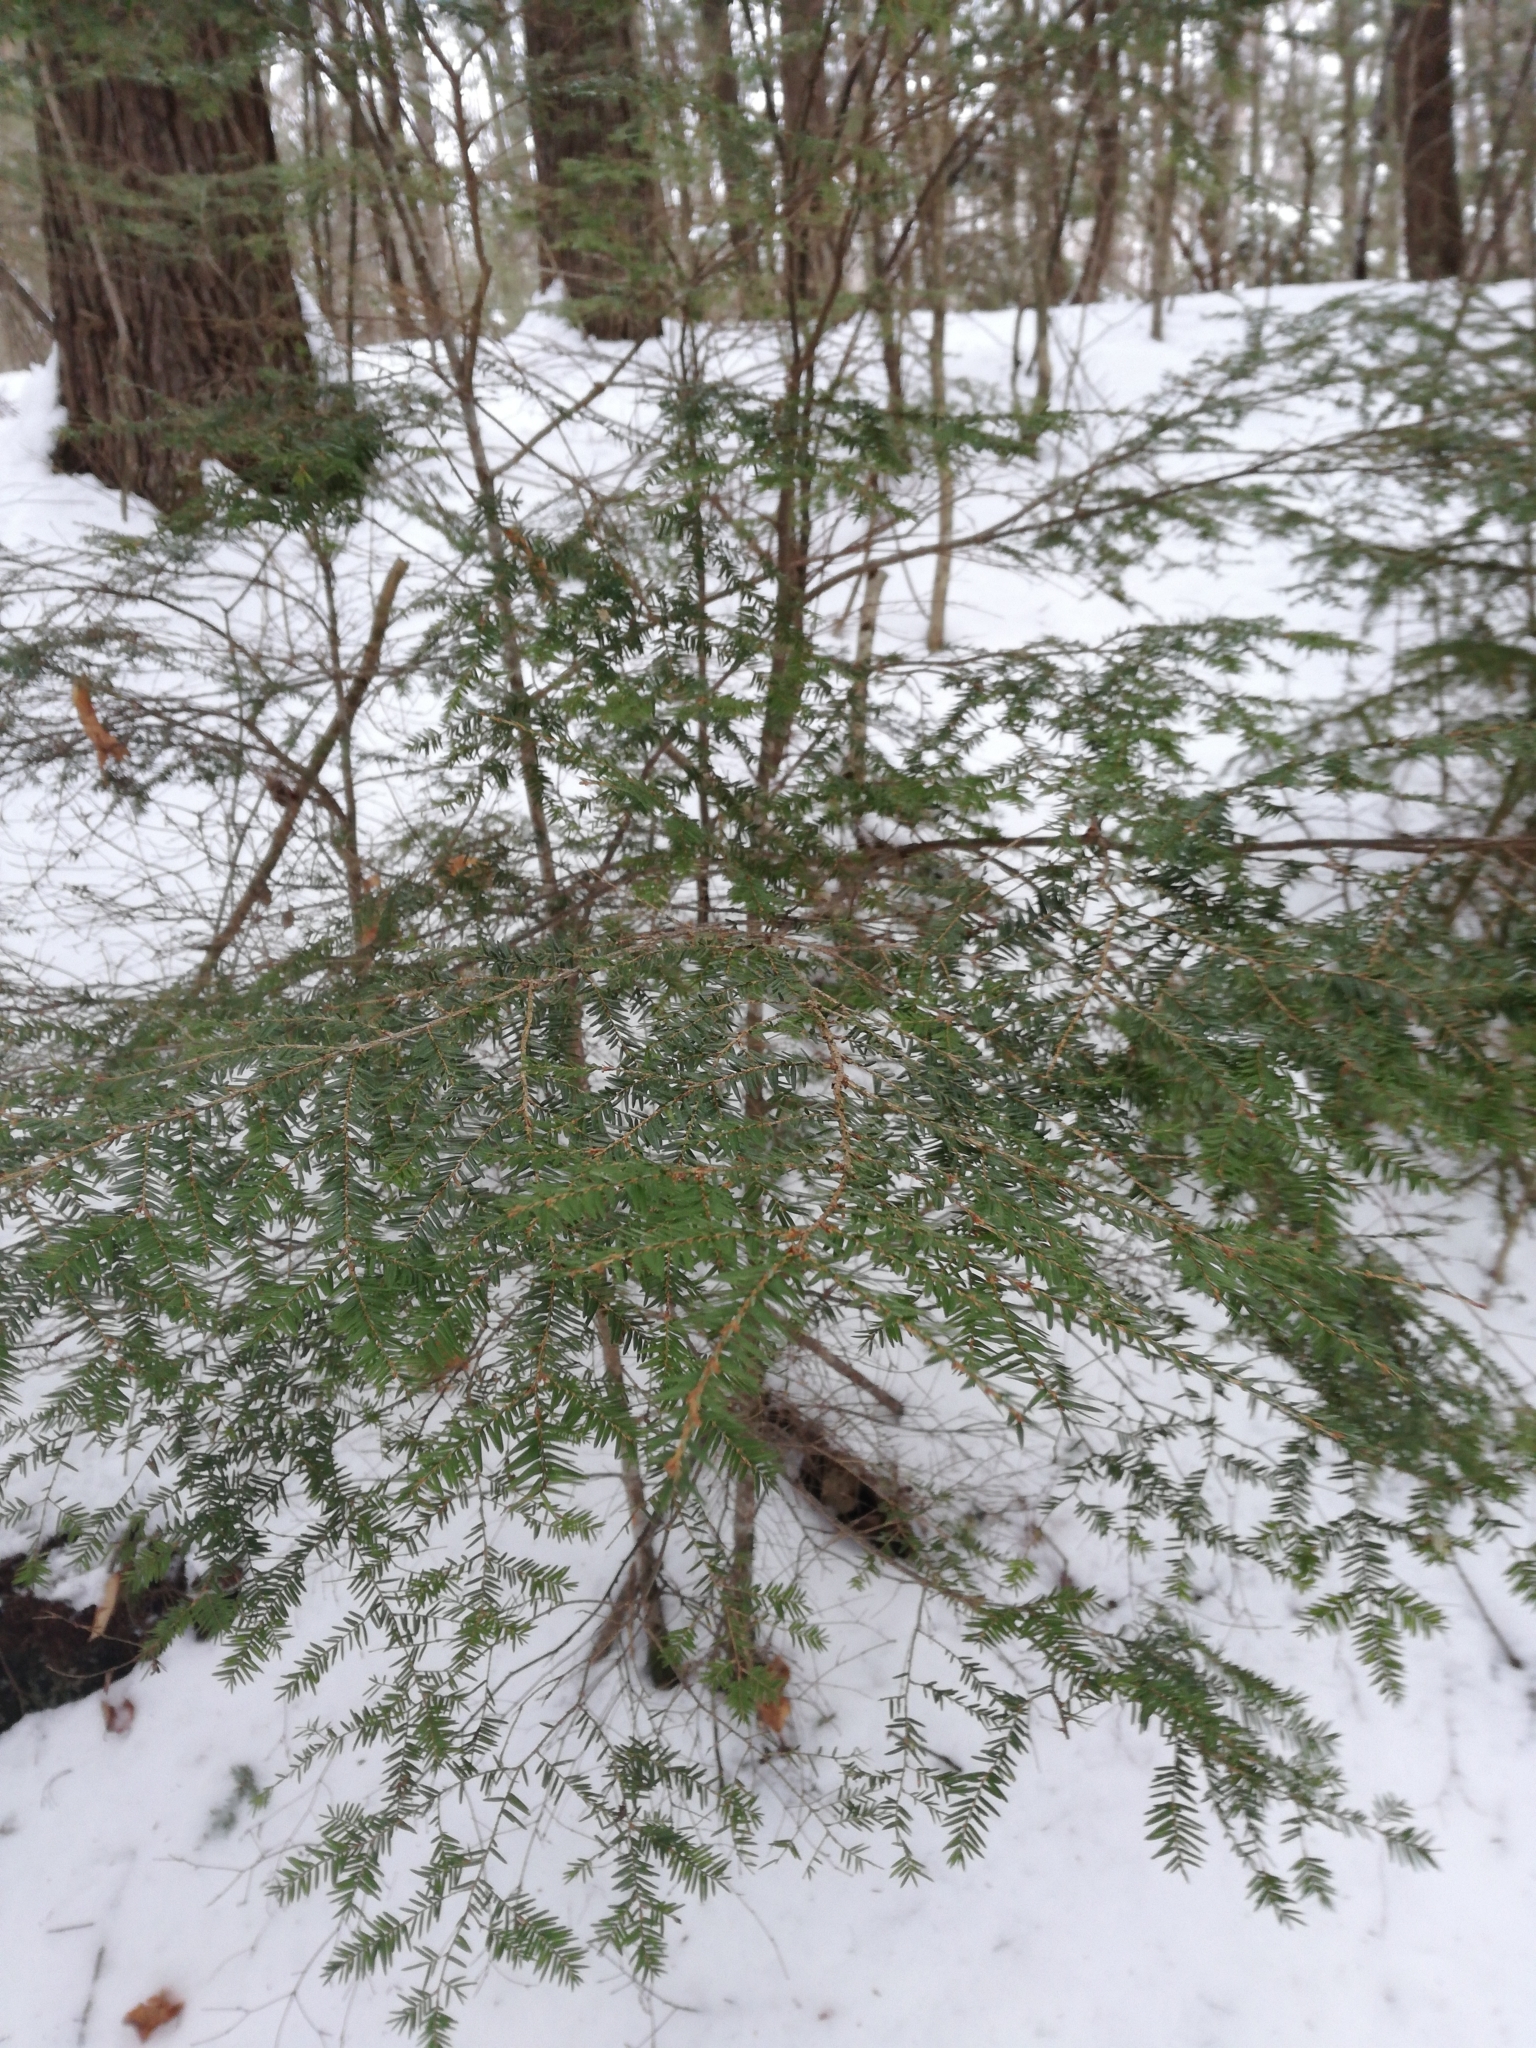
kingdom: Plantae
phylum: Tracheophyta
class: Pinopsida
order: Pinales
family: Pinaceae
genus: Tsuga
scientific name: Tsuga canadensis
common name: Eastern hemlock
